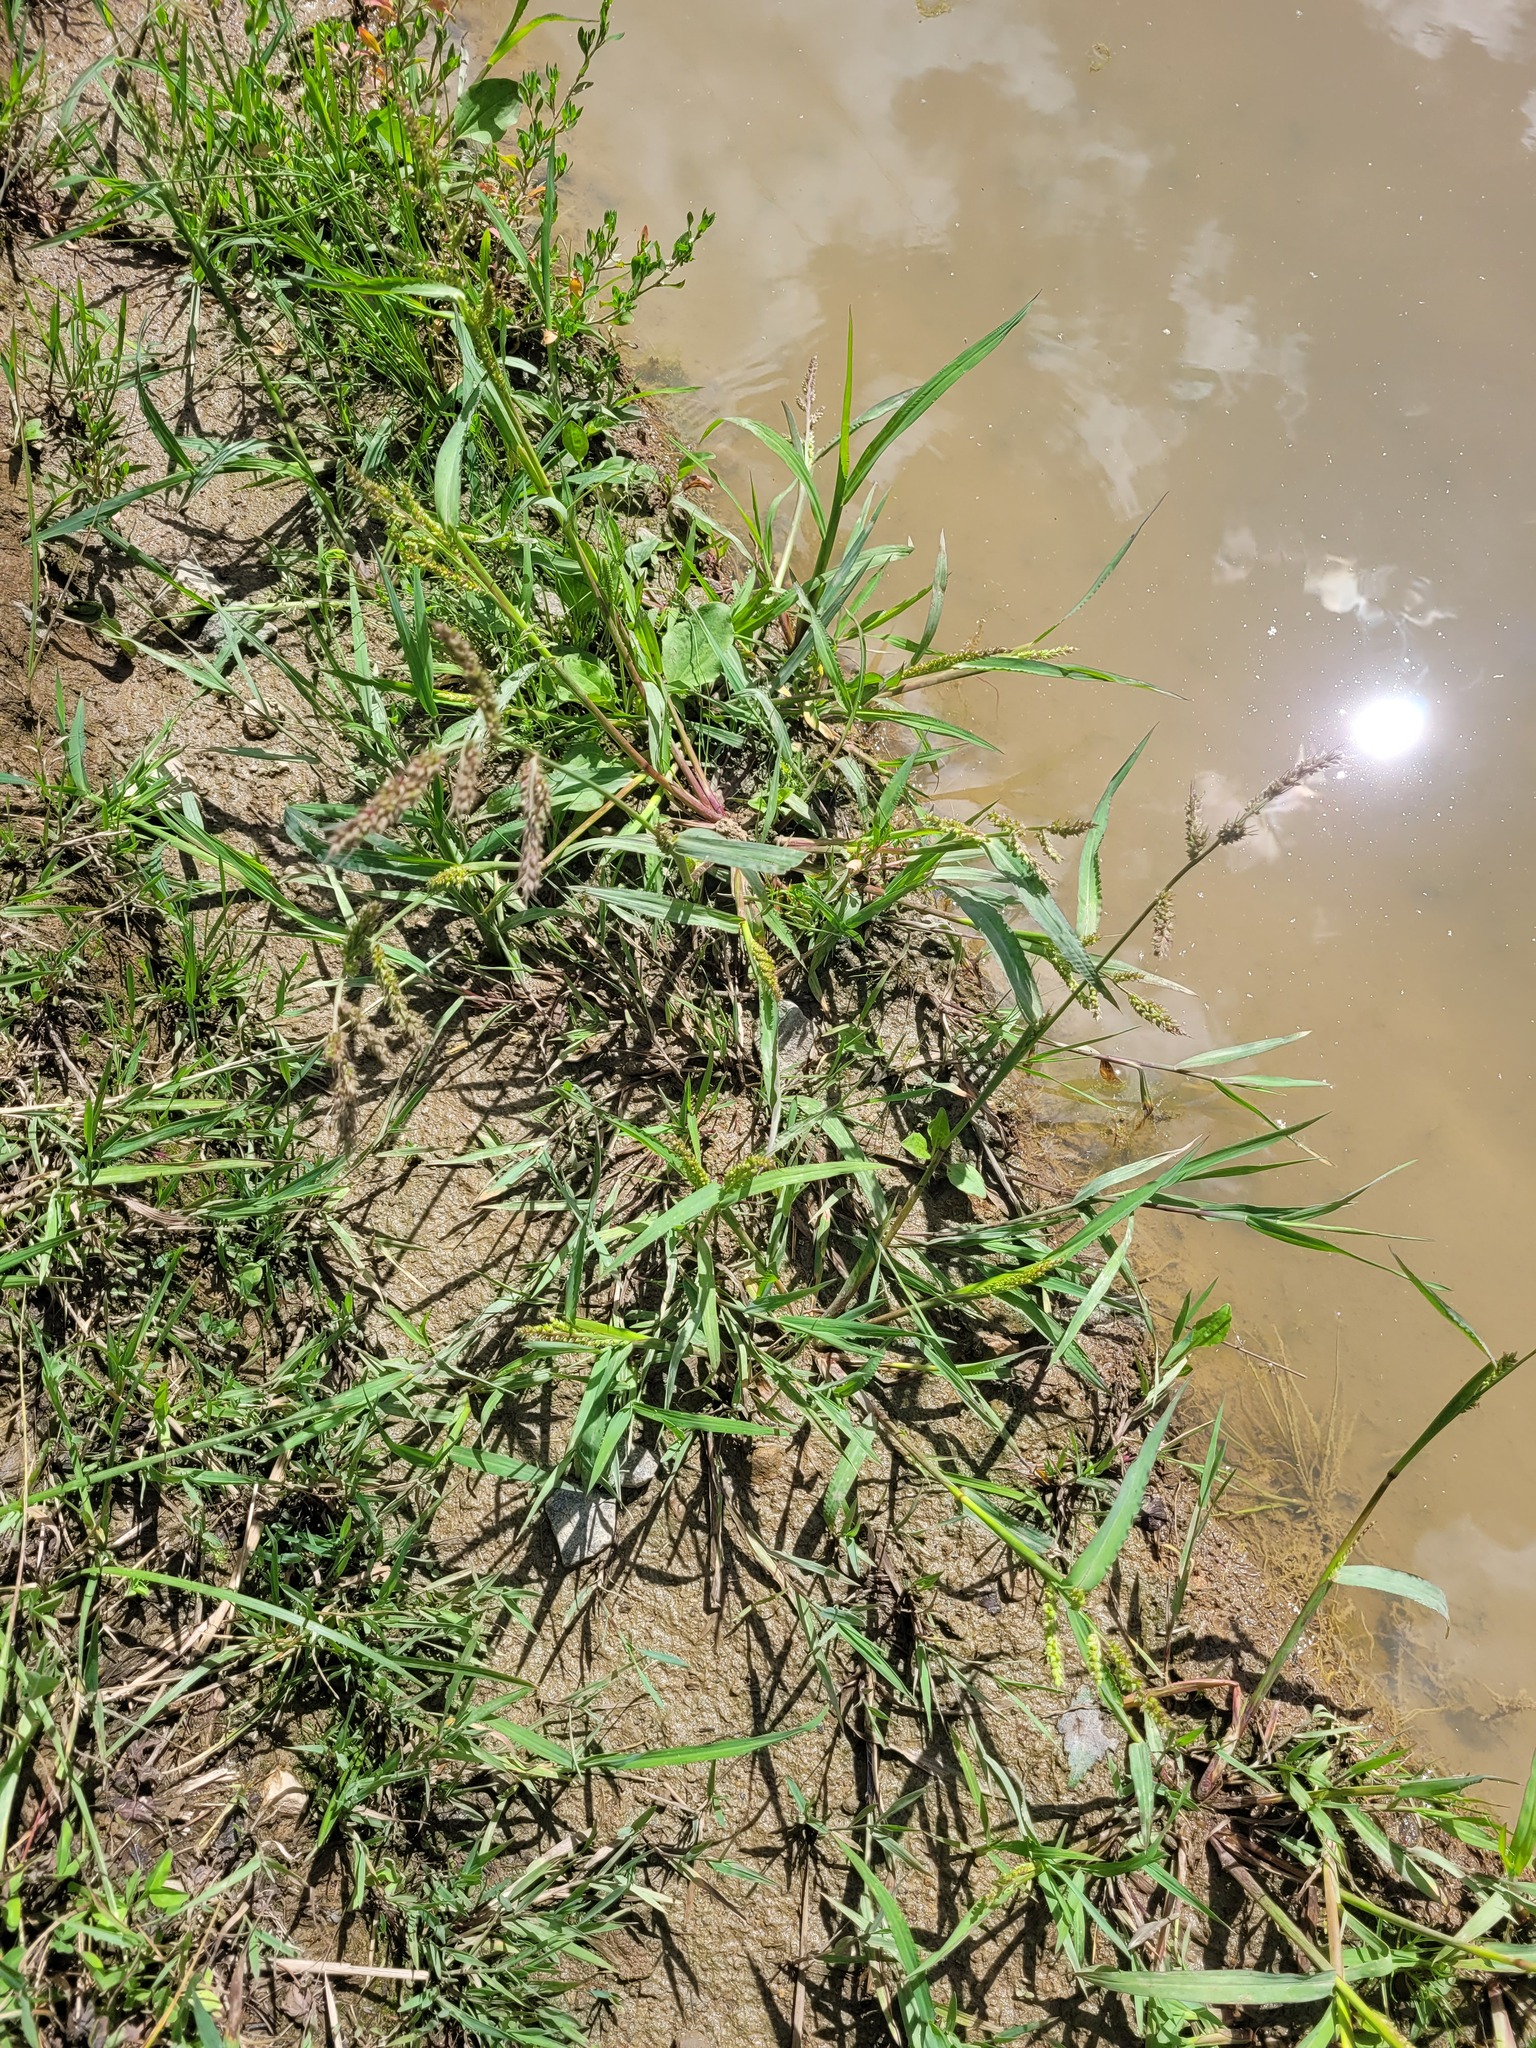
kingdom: Plantae
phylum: Tracheophyta
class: Liliopsida
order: Poales
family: Poaceae
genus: Echinochloa
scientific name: Echinochloa crus-galli
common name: Cockspur
